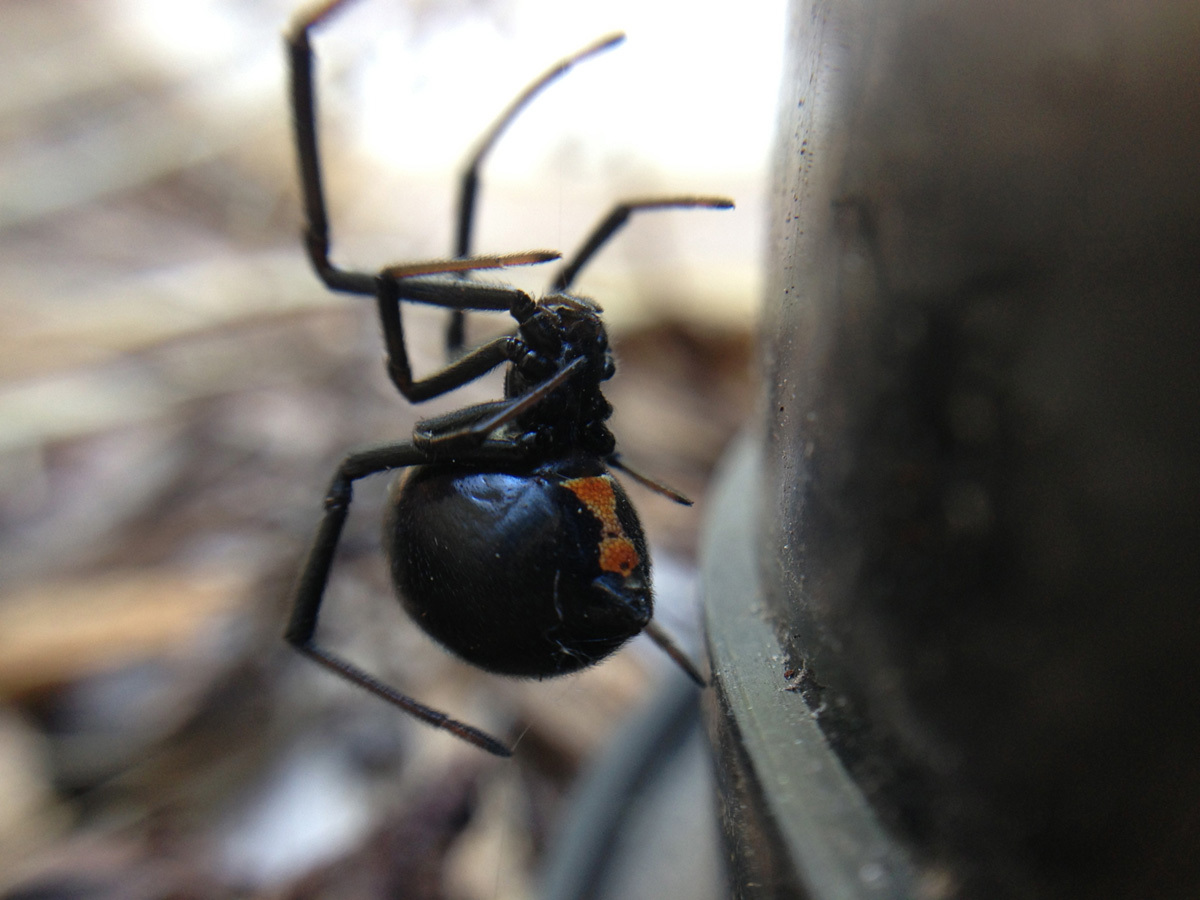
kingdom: Animalia
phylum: Arthropoda
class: Arachnida
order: Araneae
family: Theridiidae
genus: Latrodectus
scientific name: Latrodectus hesperus
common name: Western black widow
